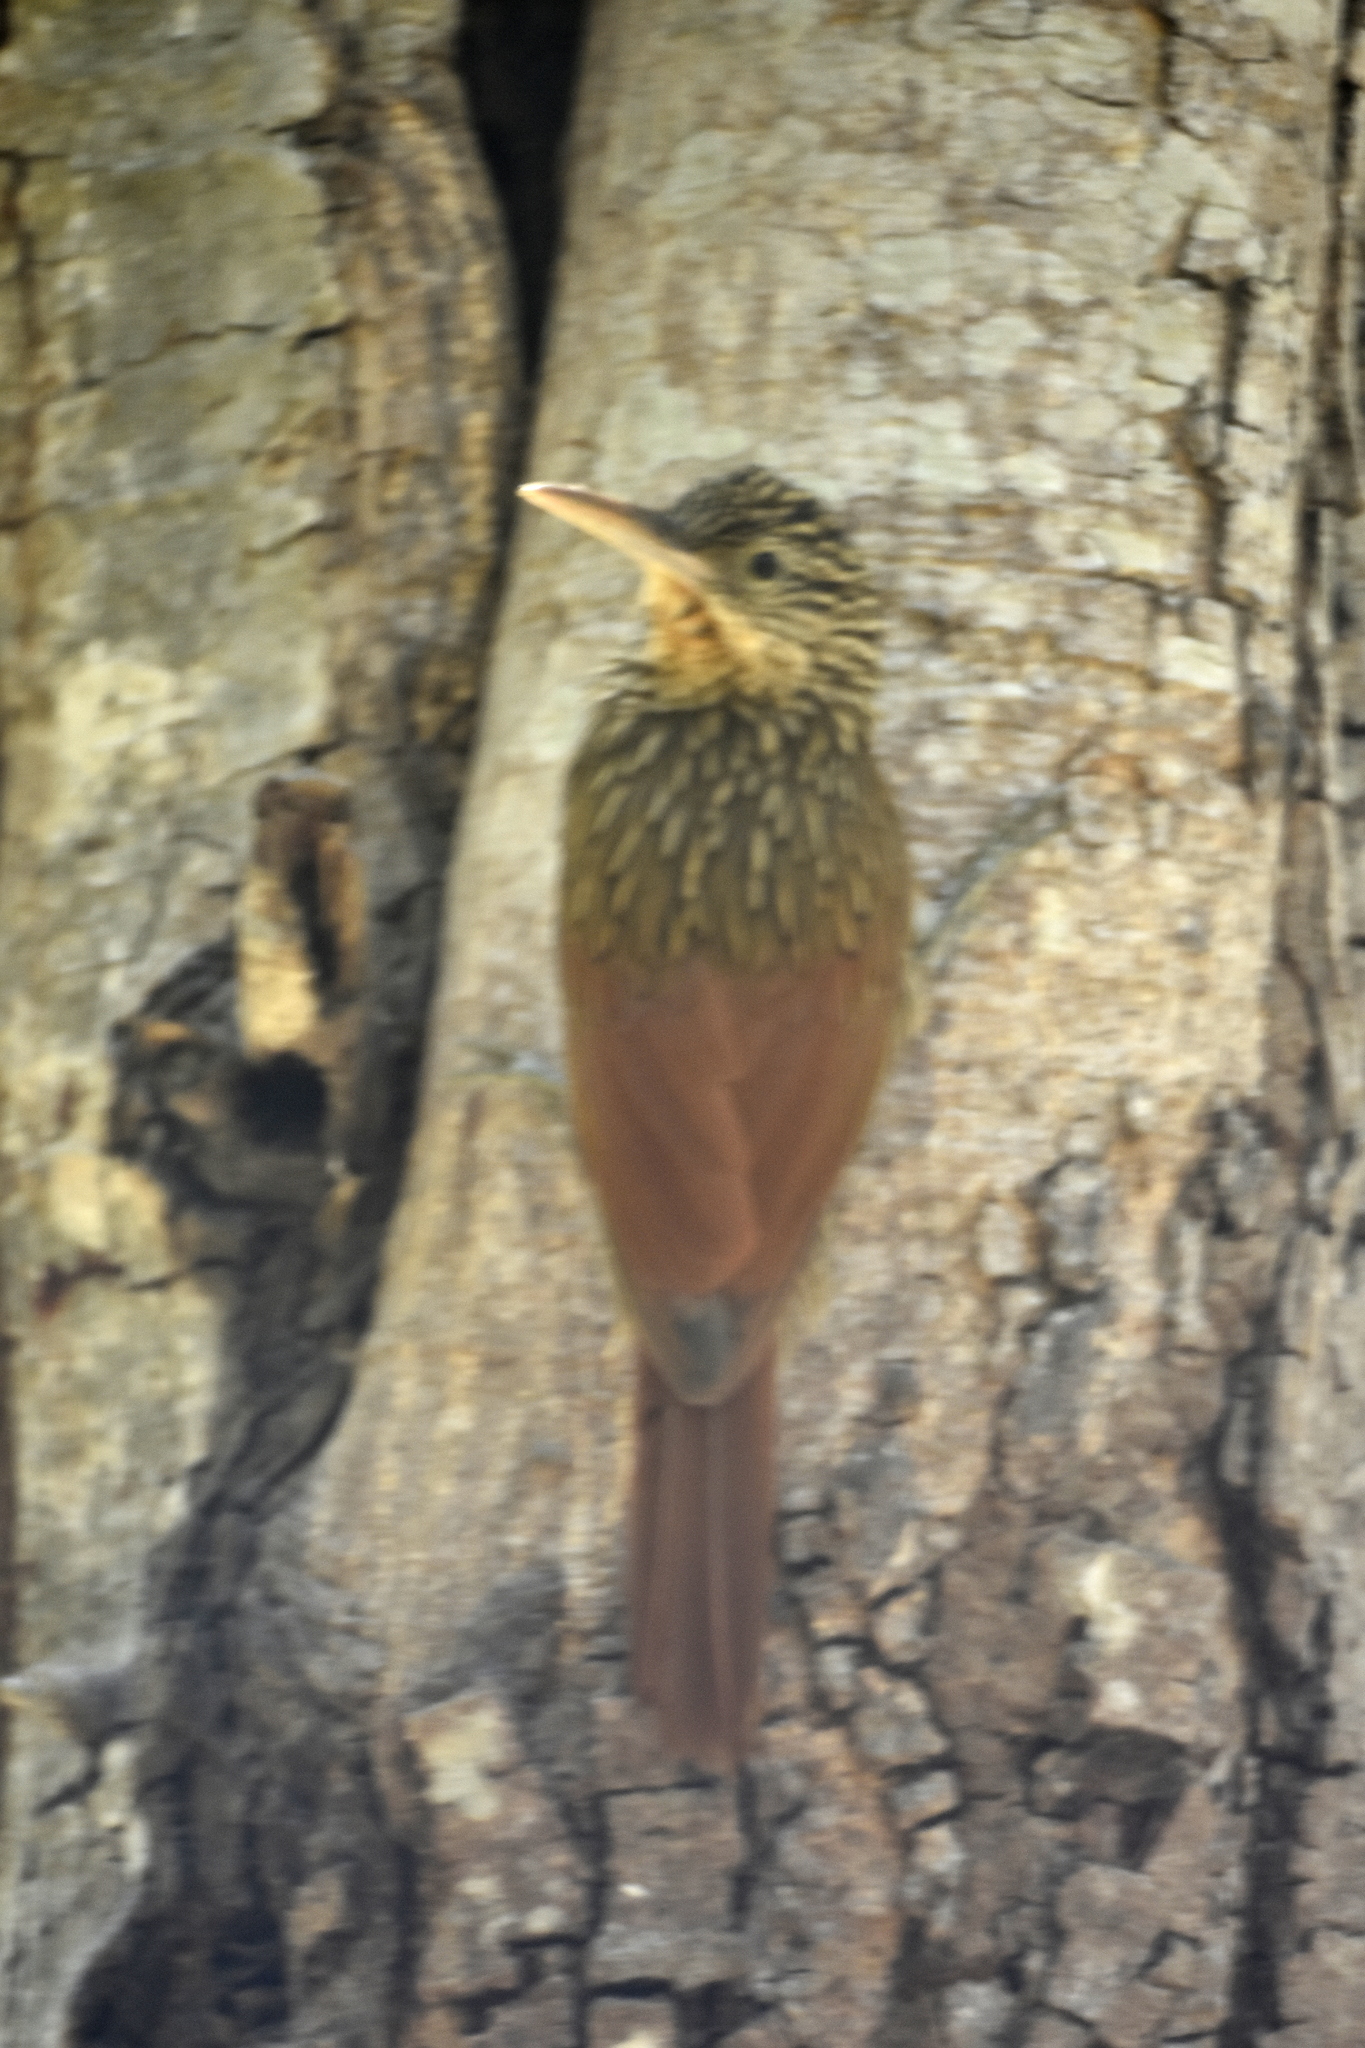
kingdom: Animalia
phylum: Chordata
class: Aves
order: Passeriformes
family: Furnariidae
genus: Xiphorhynchus
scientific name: Xiphorhynchus flavigaster
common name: Ivory-billed woodcreeper
